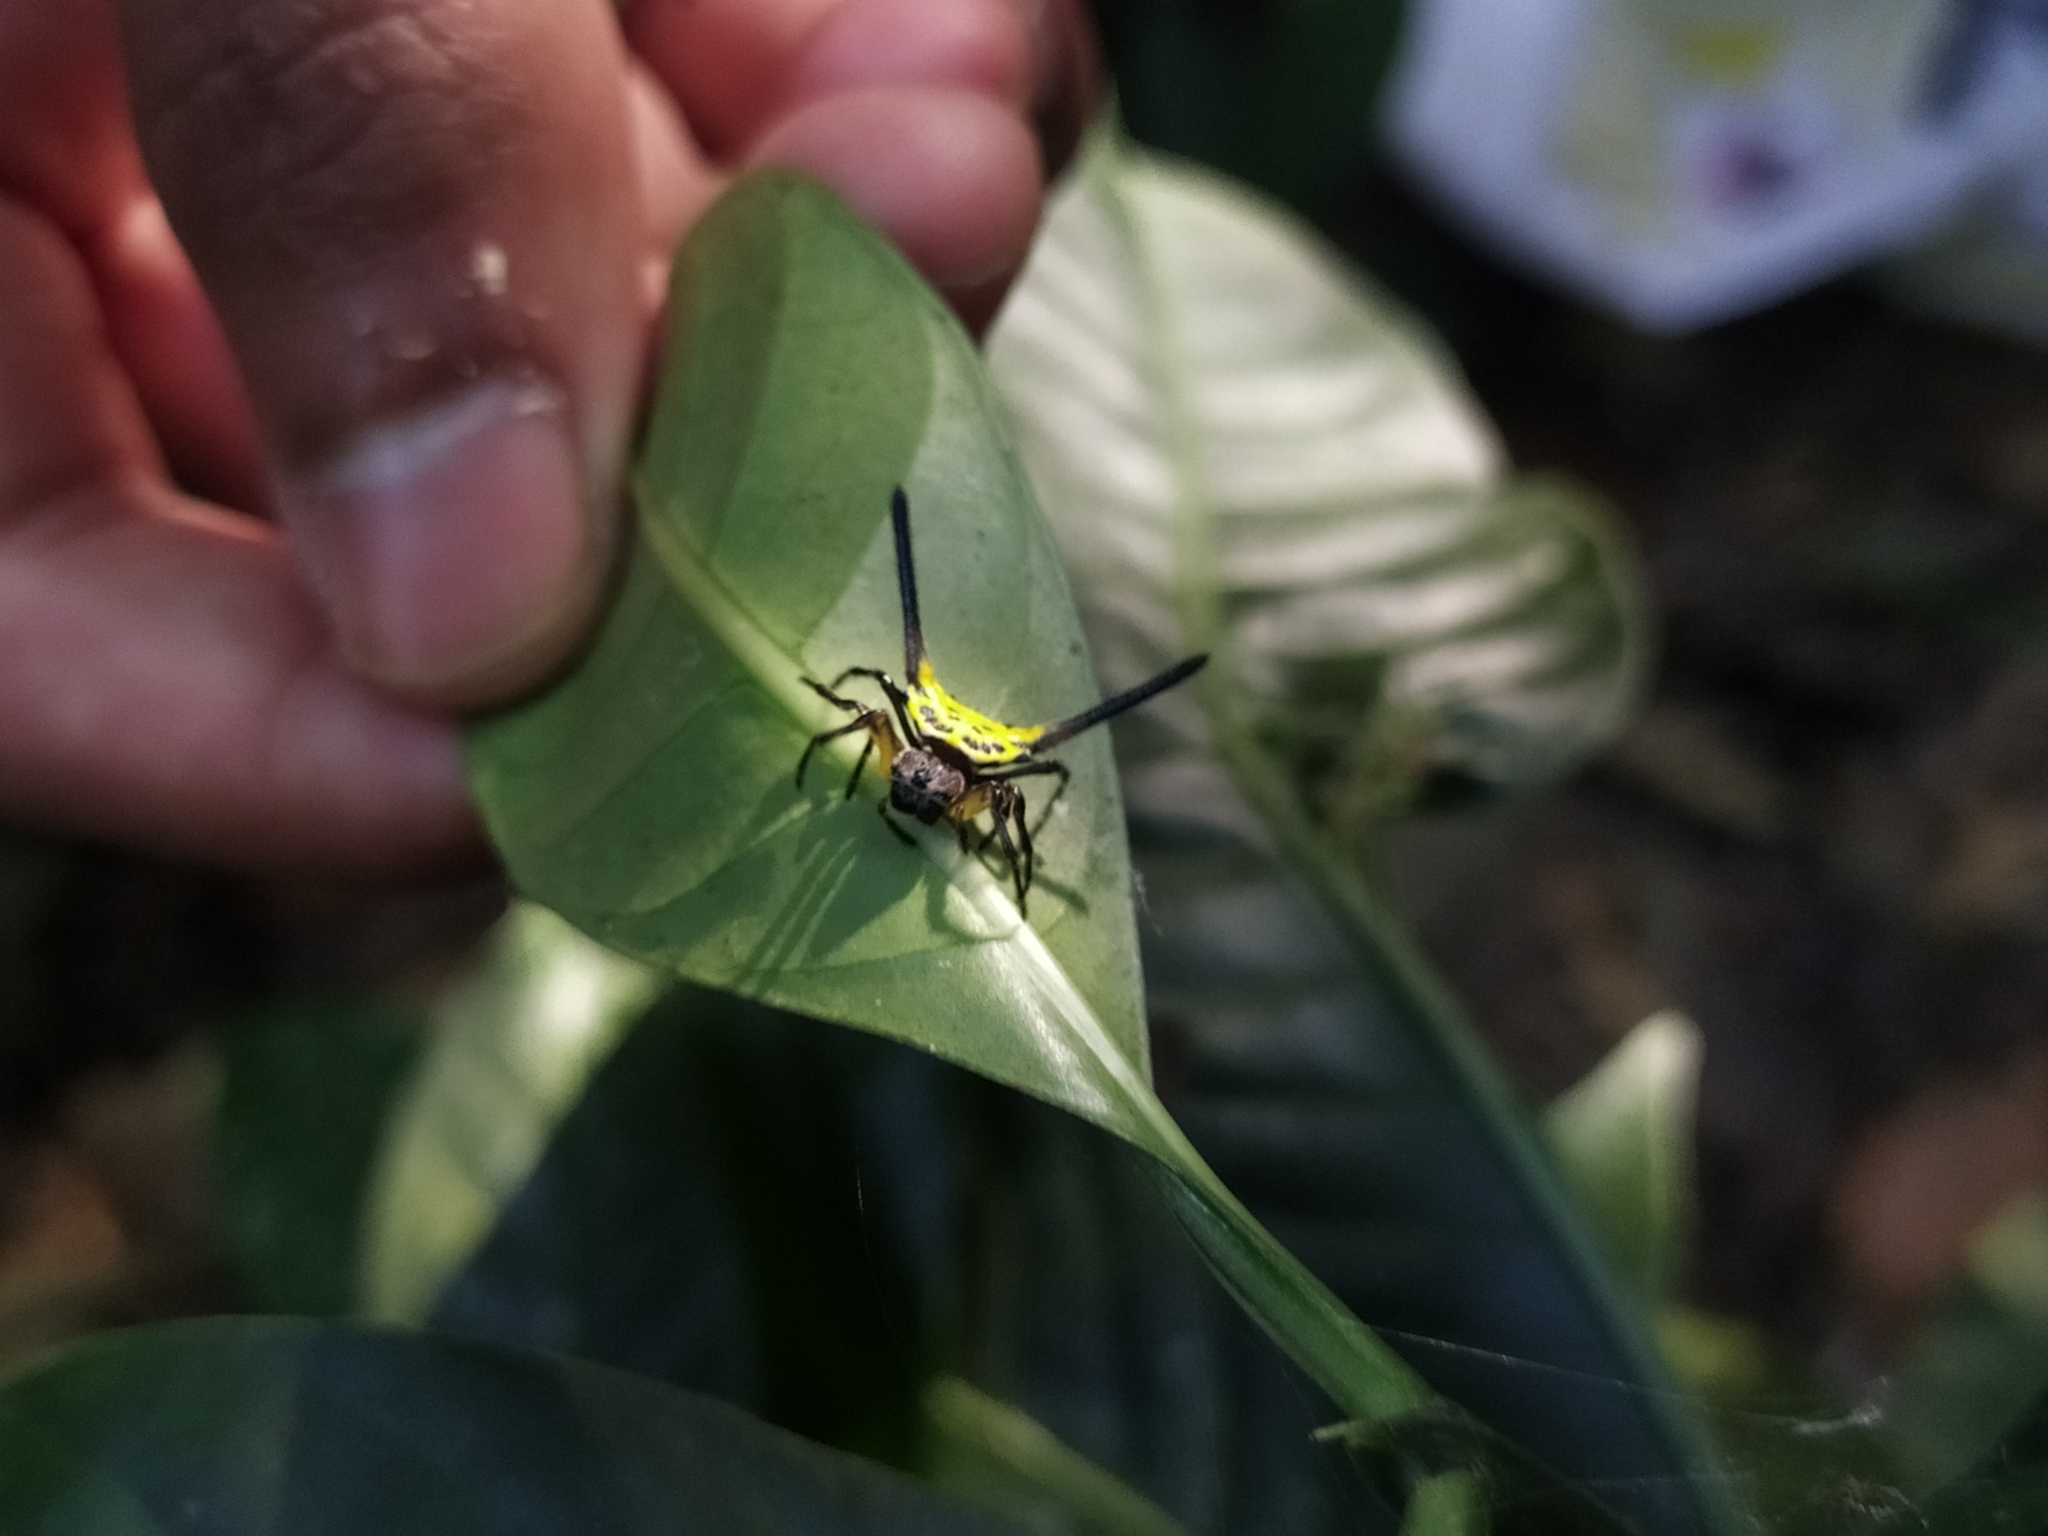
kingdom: Animalia
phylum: Arthropoda
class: Arachnida
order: Araneae
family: Araneidae
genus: Gasteracantha
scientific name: Gasteracantha dalyi
